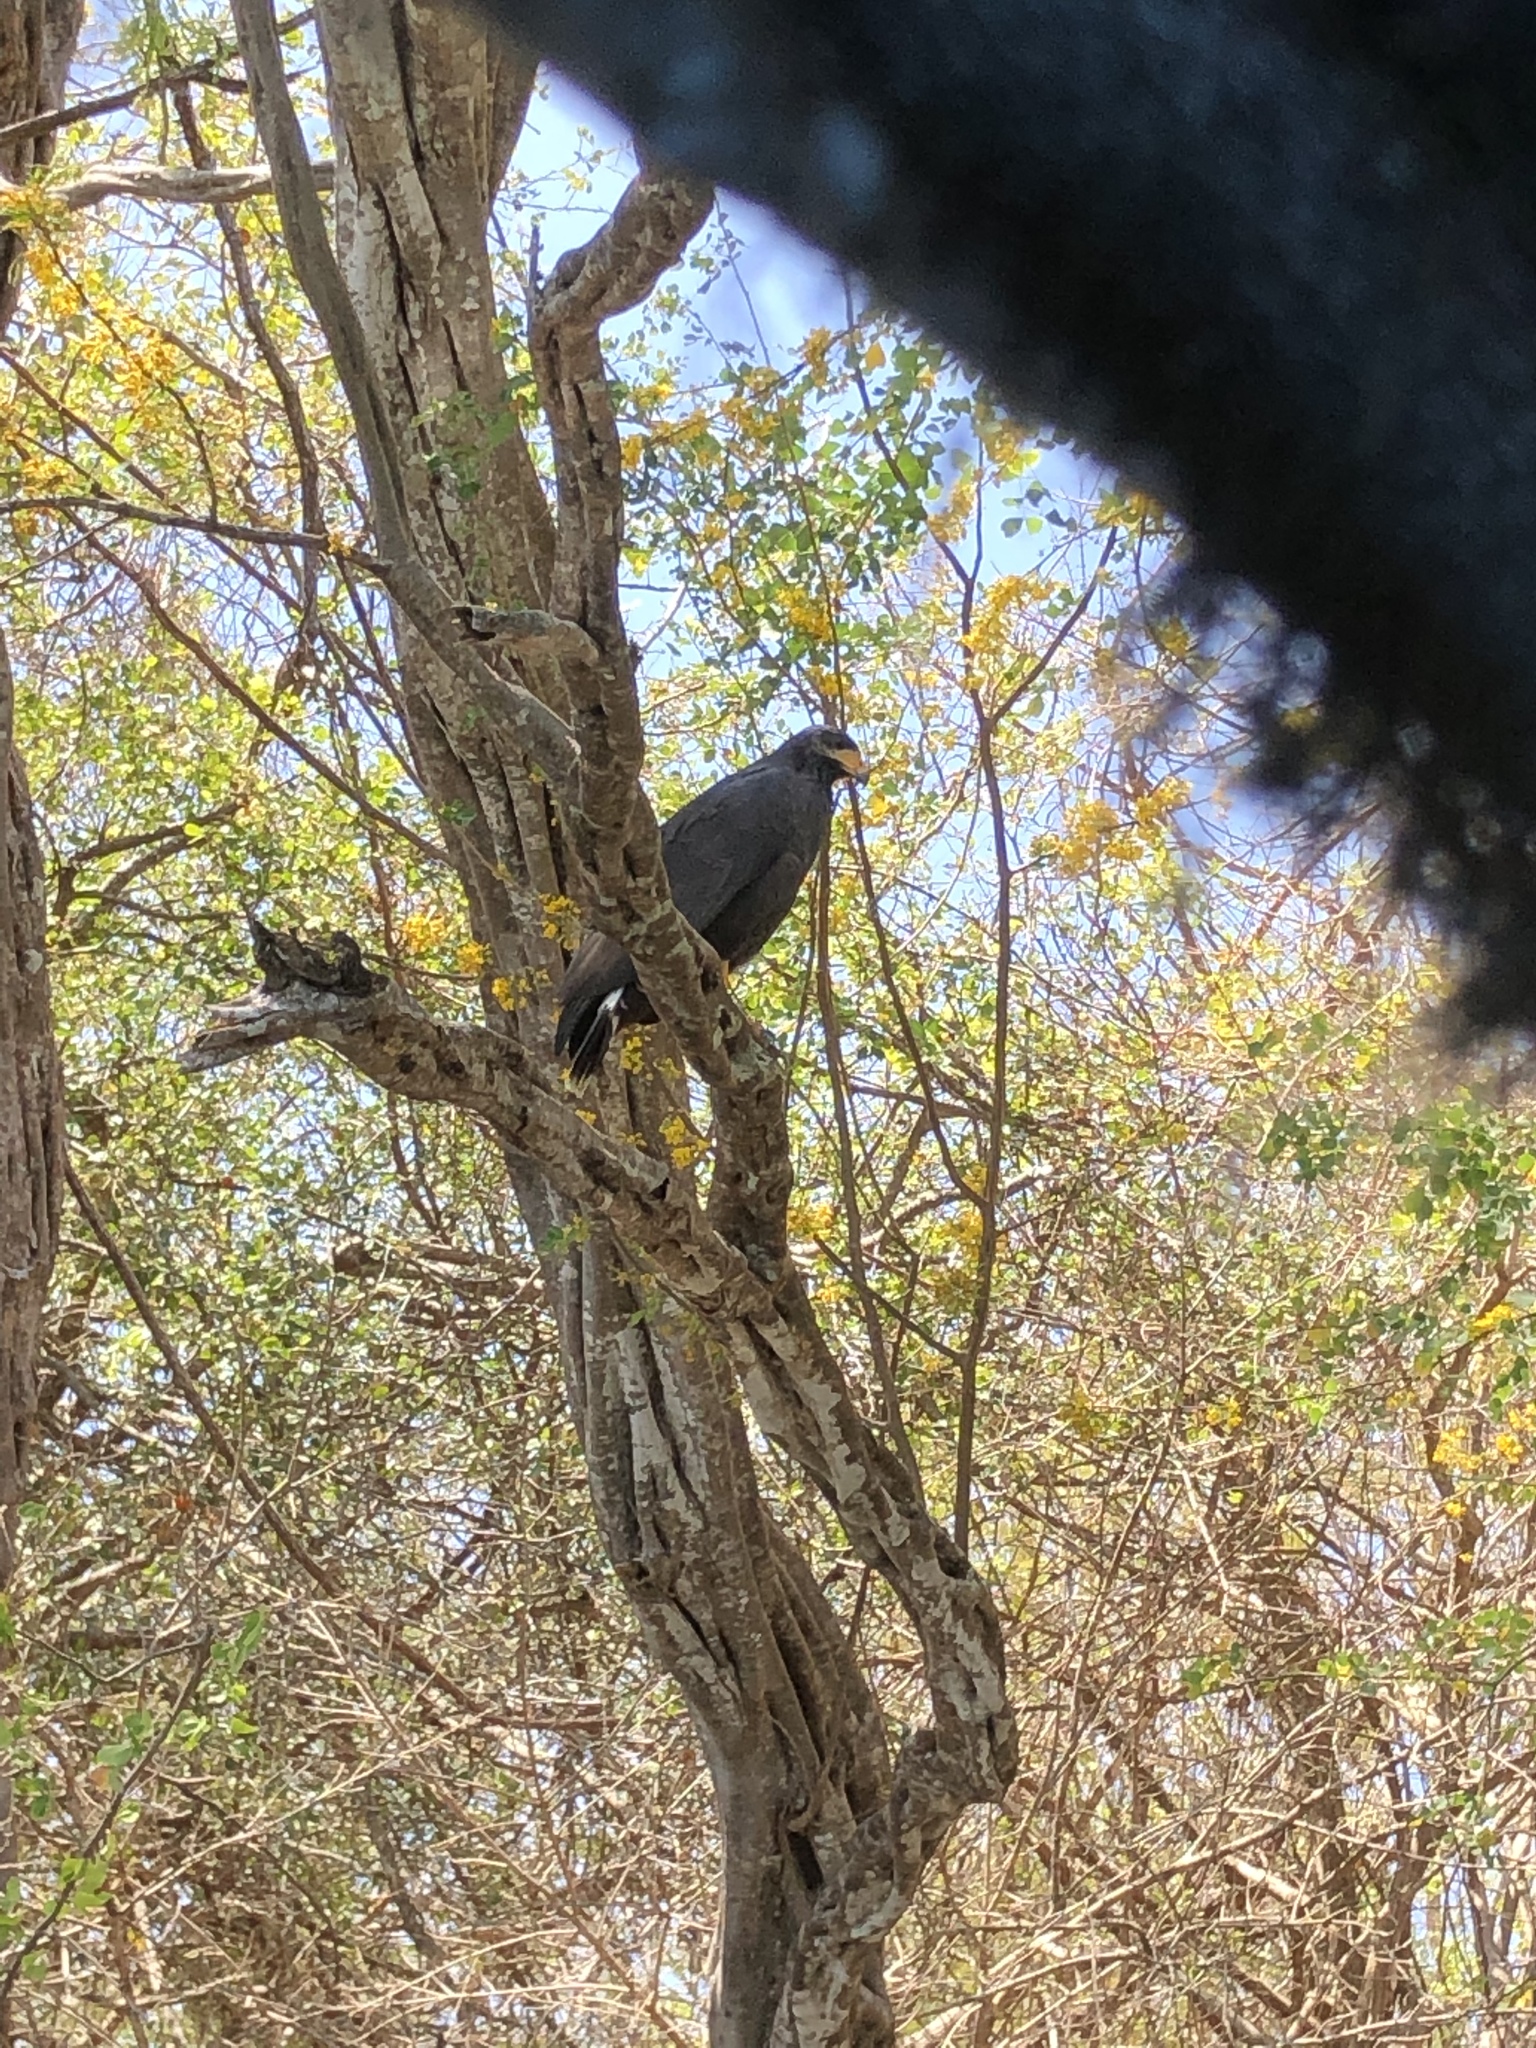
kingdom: Animalia
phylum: Chordata
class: Aves
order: Accipitriformes
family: Accipitridae
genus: Buteogallus
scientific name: Buteogallus anthracinus
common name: Common black hawk
